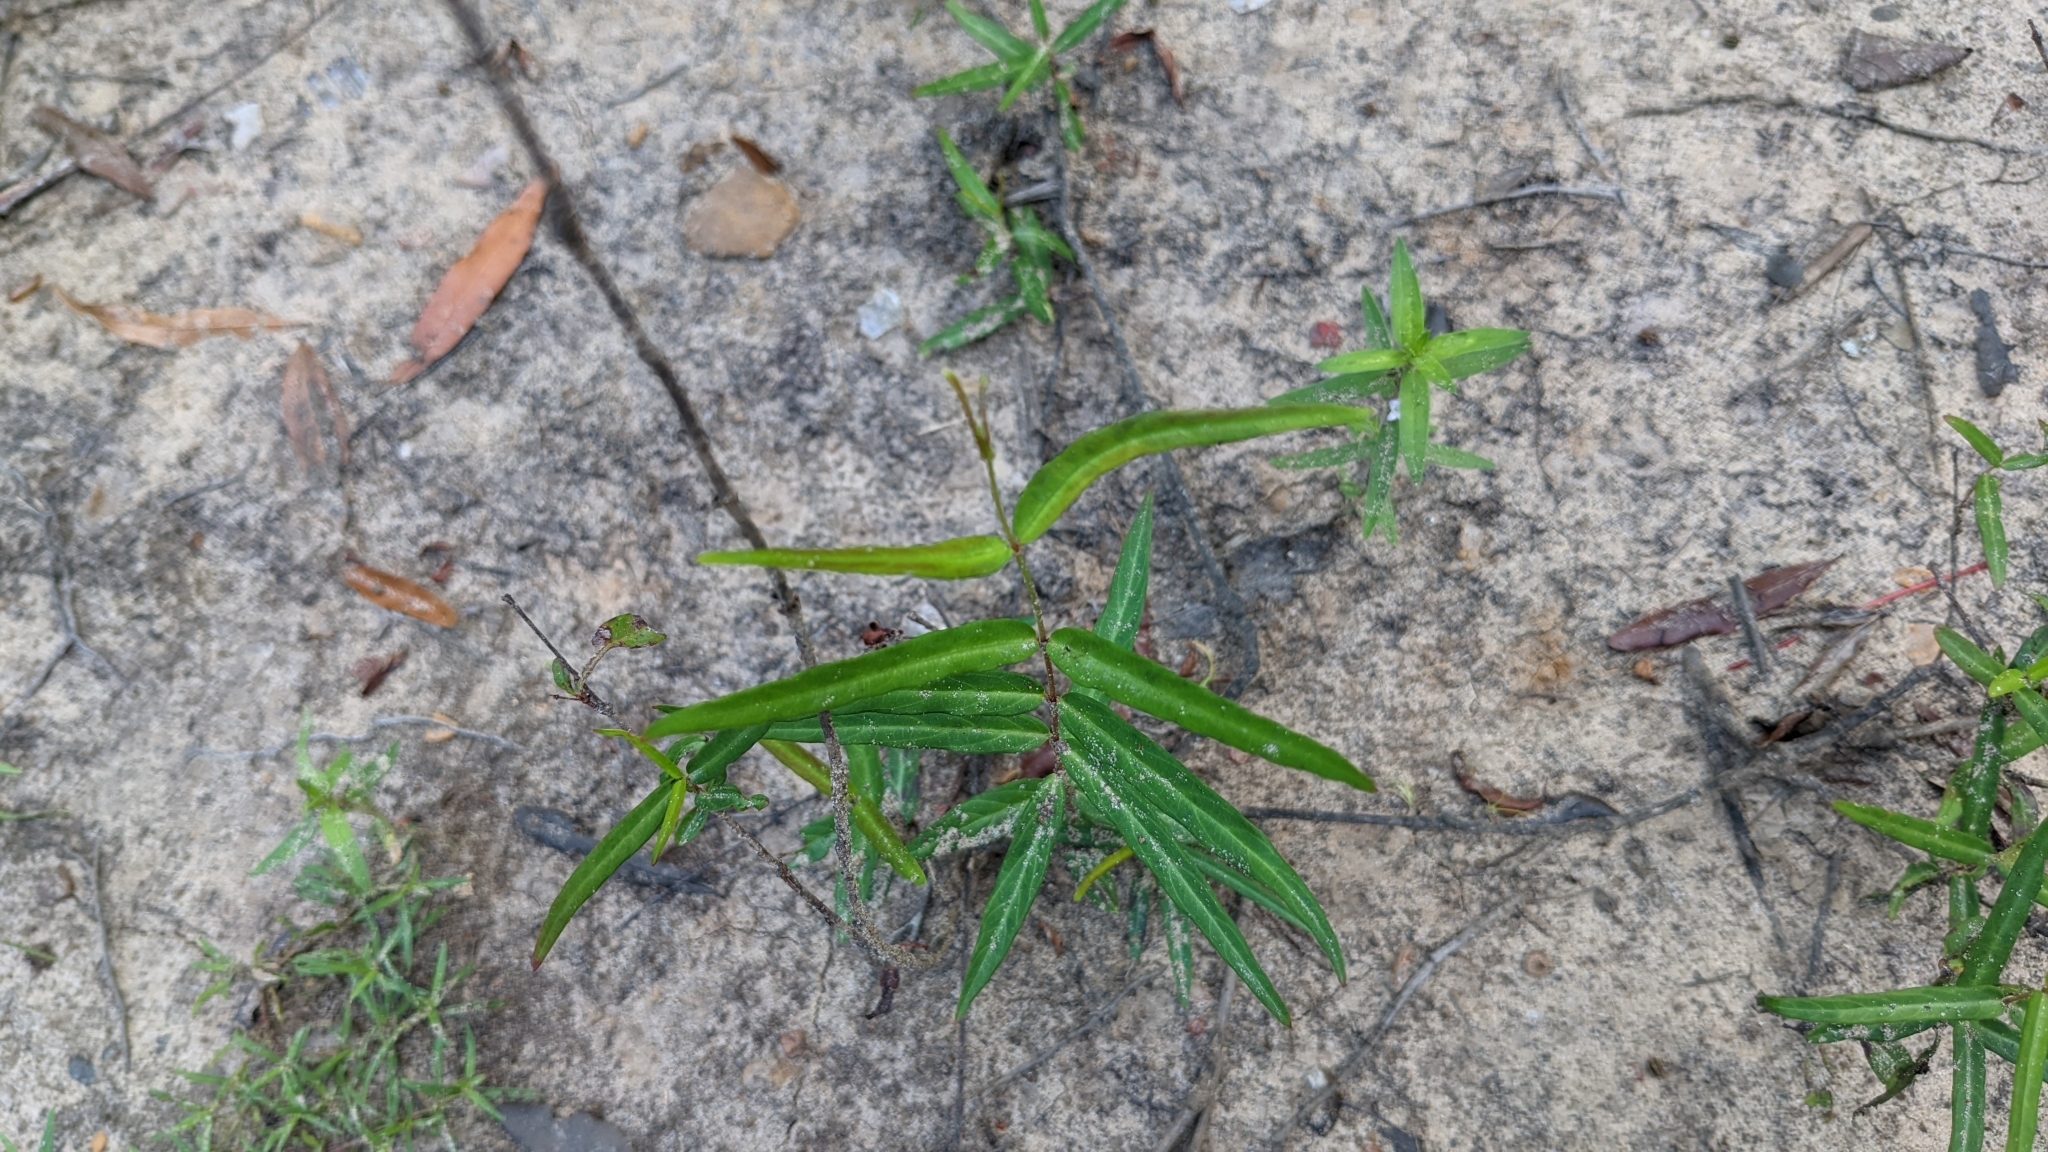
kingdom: Plantae
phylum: Tracheophyta
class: Magnoliopsida
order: Gentianales
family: Apocynaceae
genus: Thyrsanthella
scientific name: Thyrsanthella difformis
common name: Climbing dogbane
